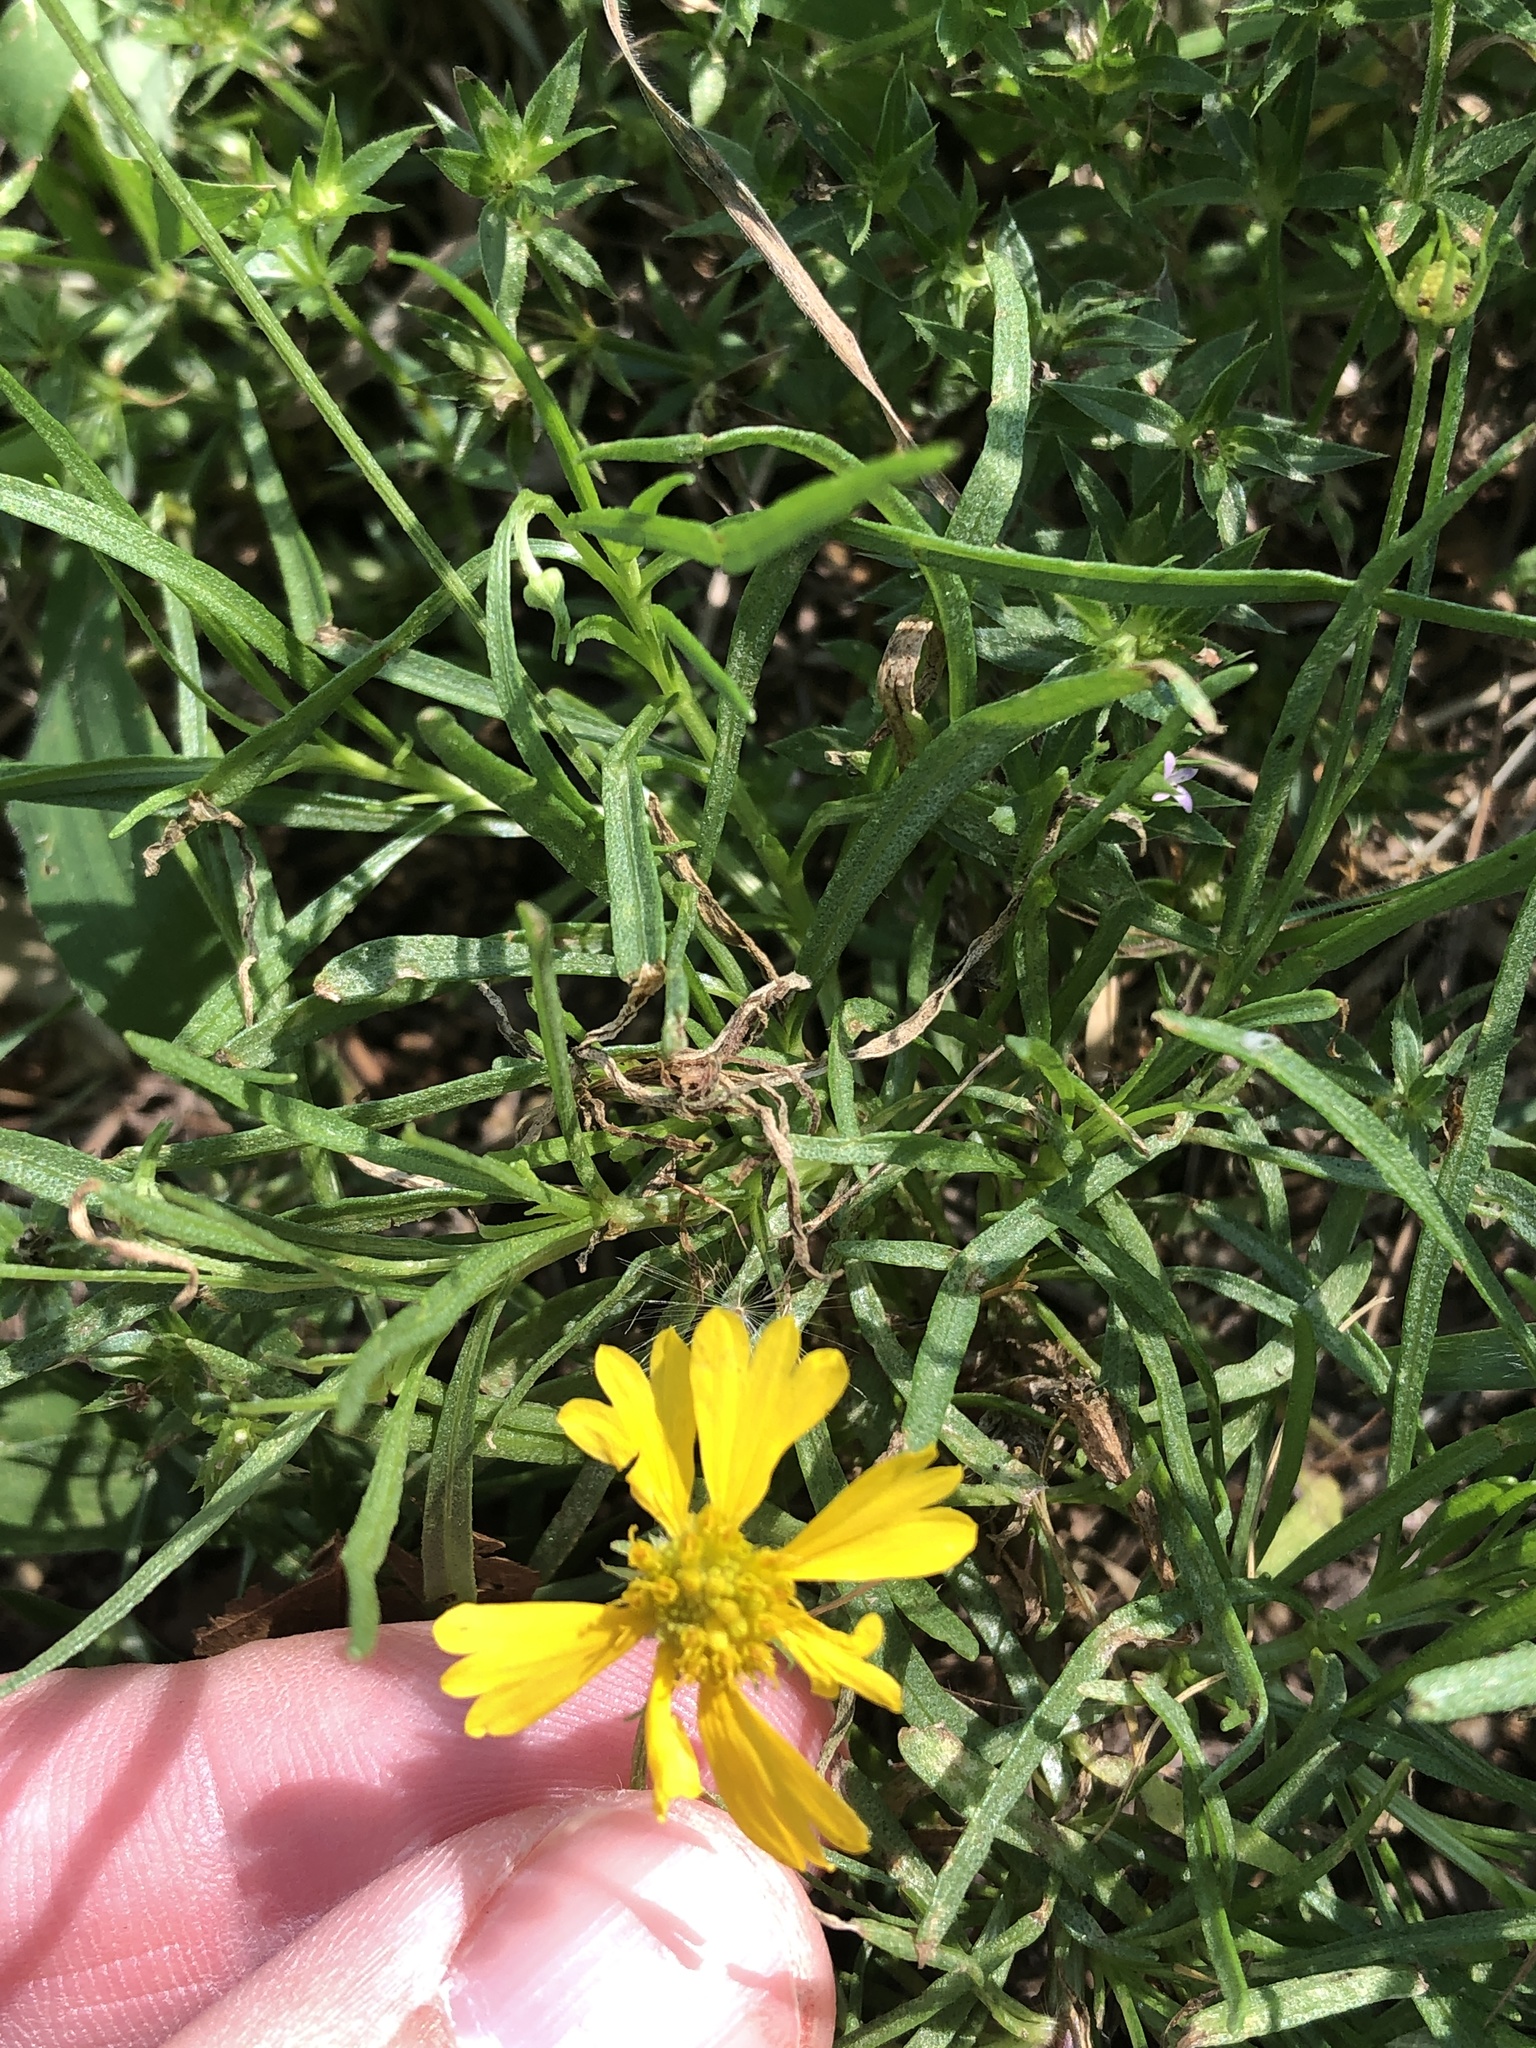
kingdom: Plantae
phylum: Tracheophyta
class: Magnoliopsida
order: Asterales
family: Asteraceae
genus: Helenium
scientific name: Helenium amarum
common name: Bitter sneezeweed
